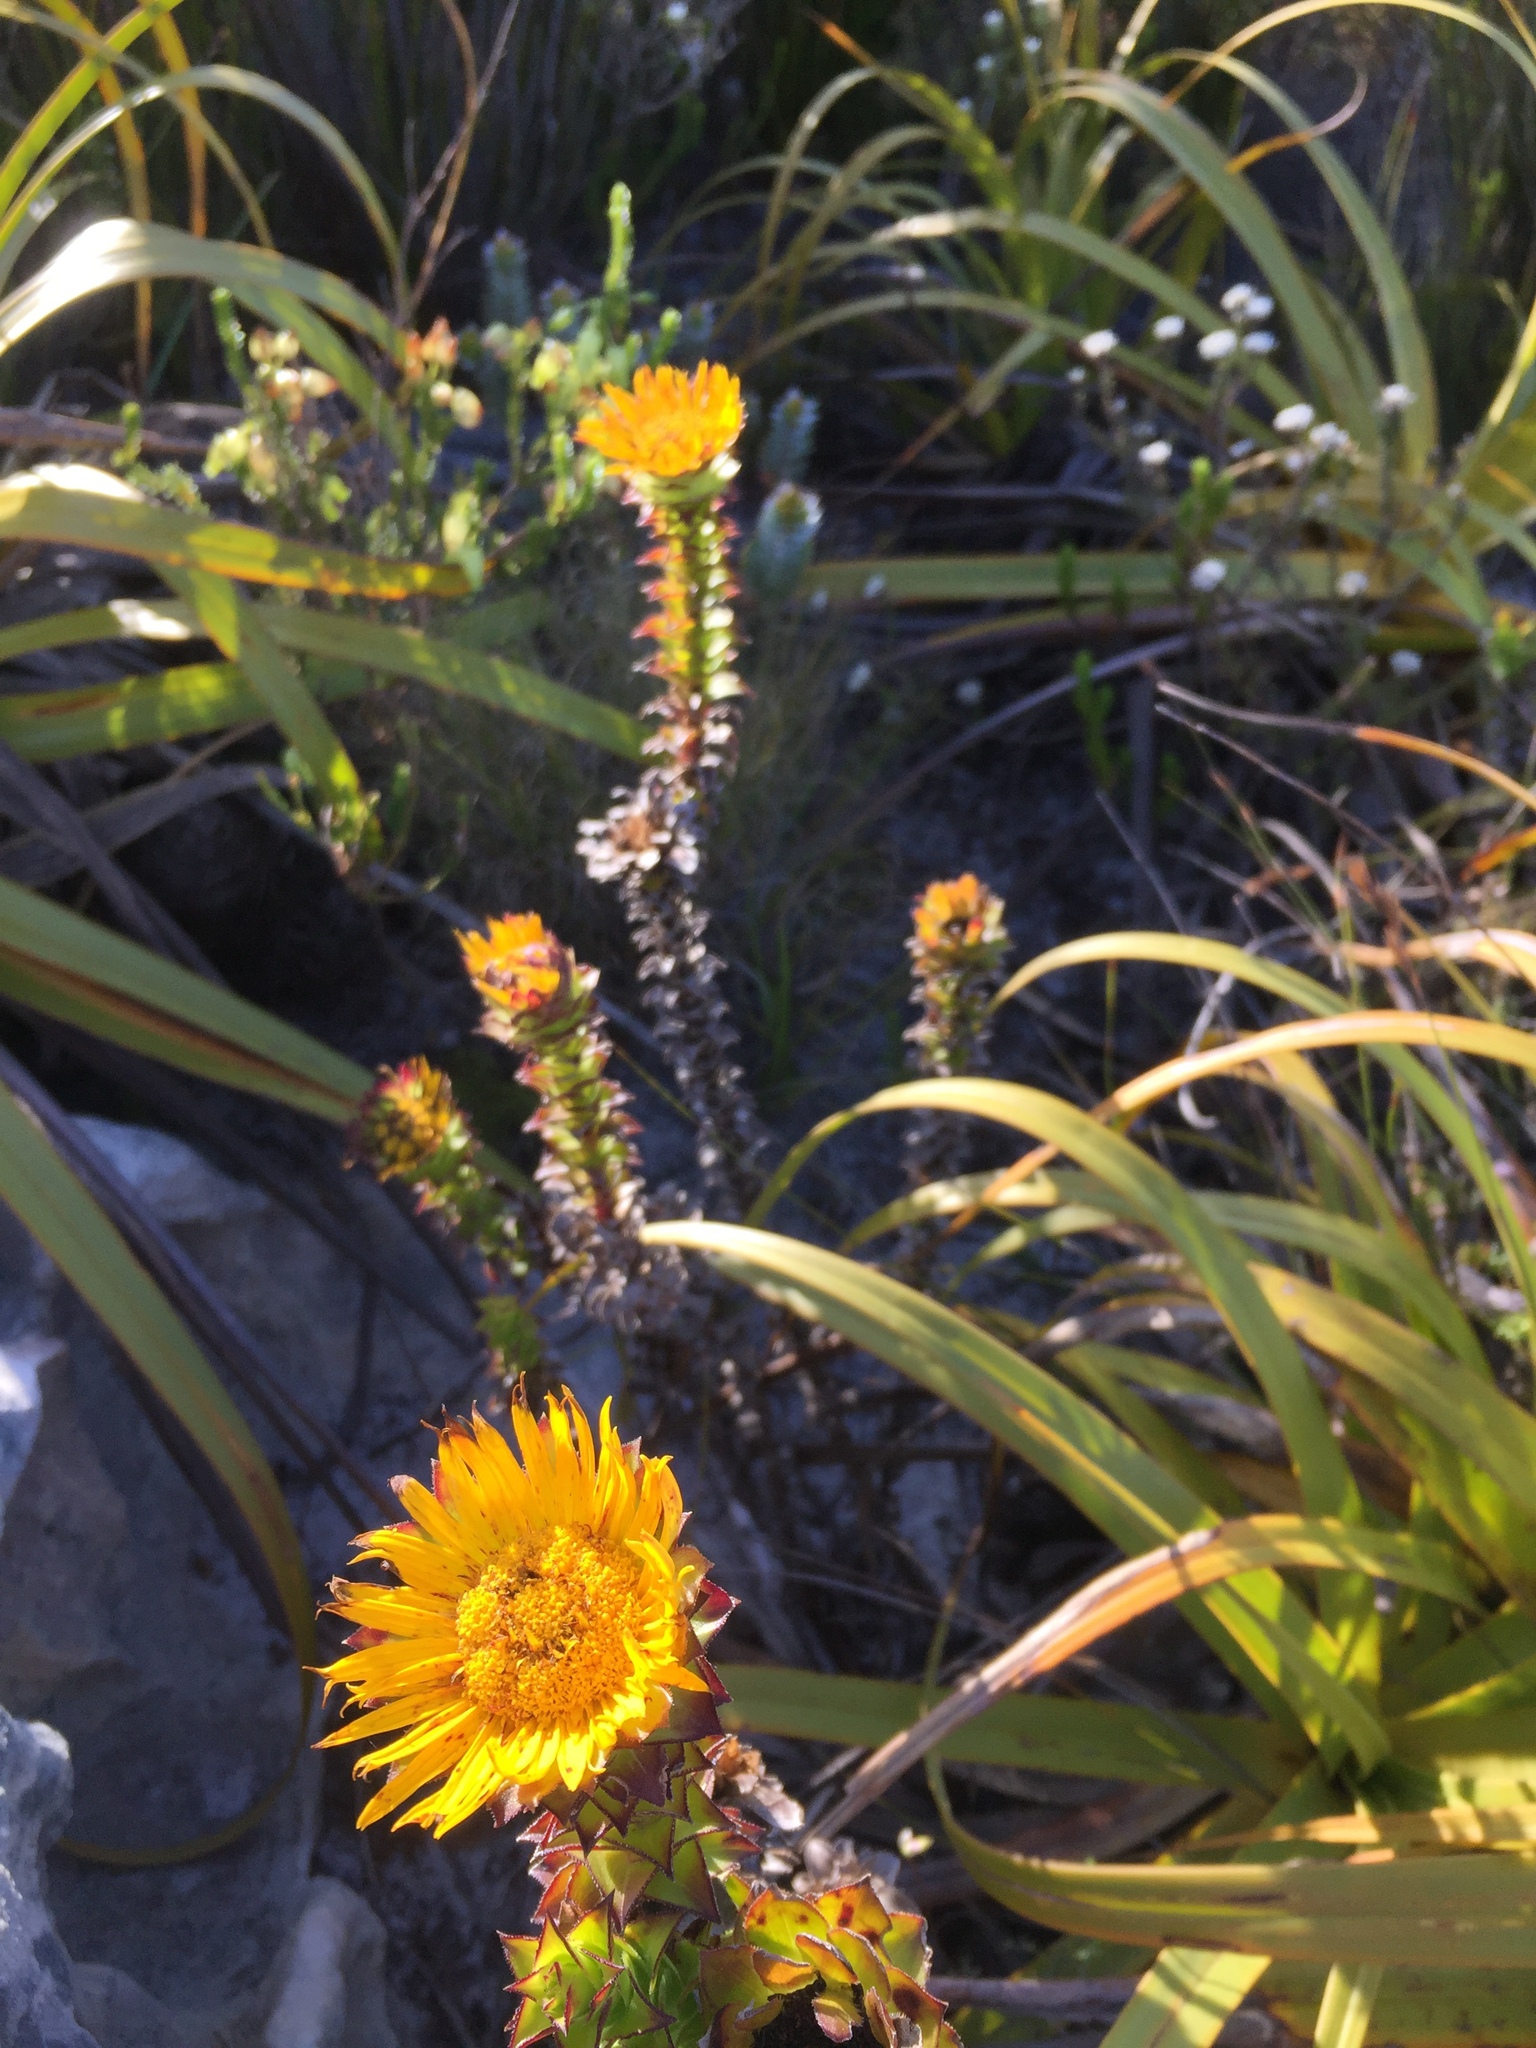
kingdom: Plantae
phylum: Tracheophyta
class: Magnoliopsida
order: Asterales
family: Asteraceae
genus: Oedera
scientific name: Oedera imbricata
